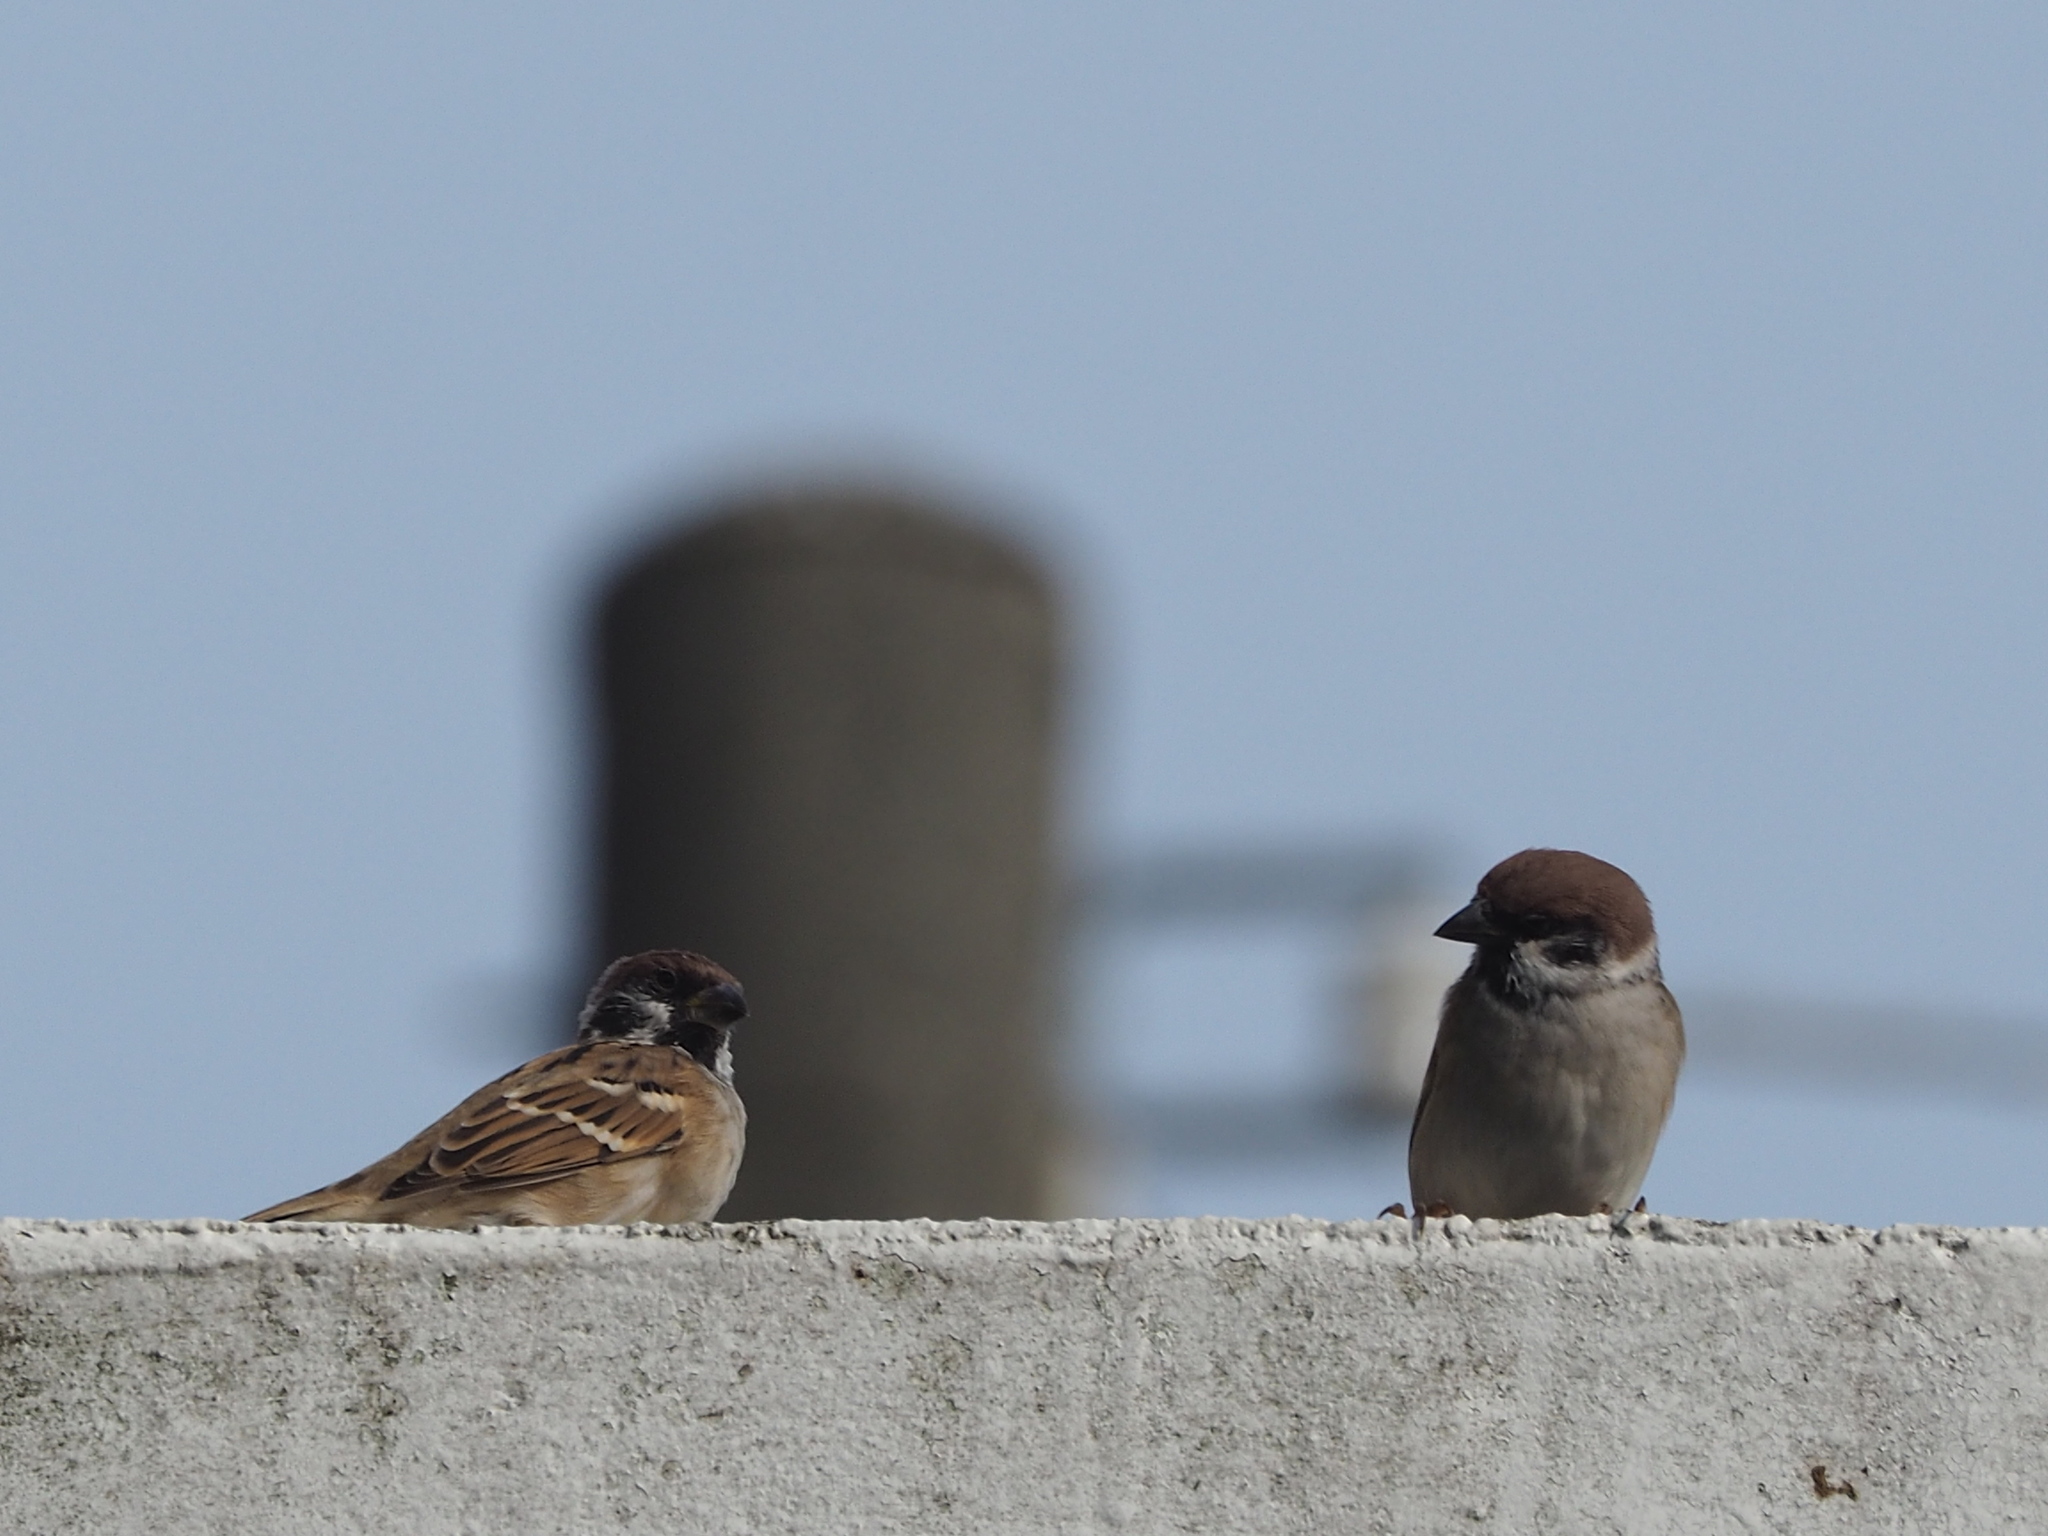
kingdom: Animalia
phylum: Chordata
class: Aves
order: Passeriformes
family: Passeridae
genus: Passer
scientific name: Passer montanus
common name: Eurasian tree sparrow
